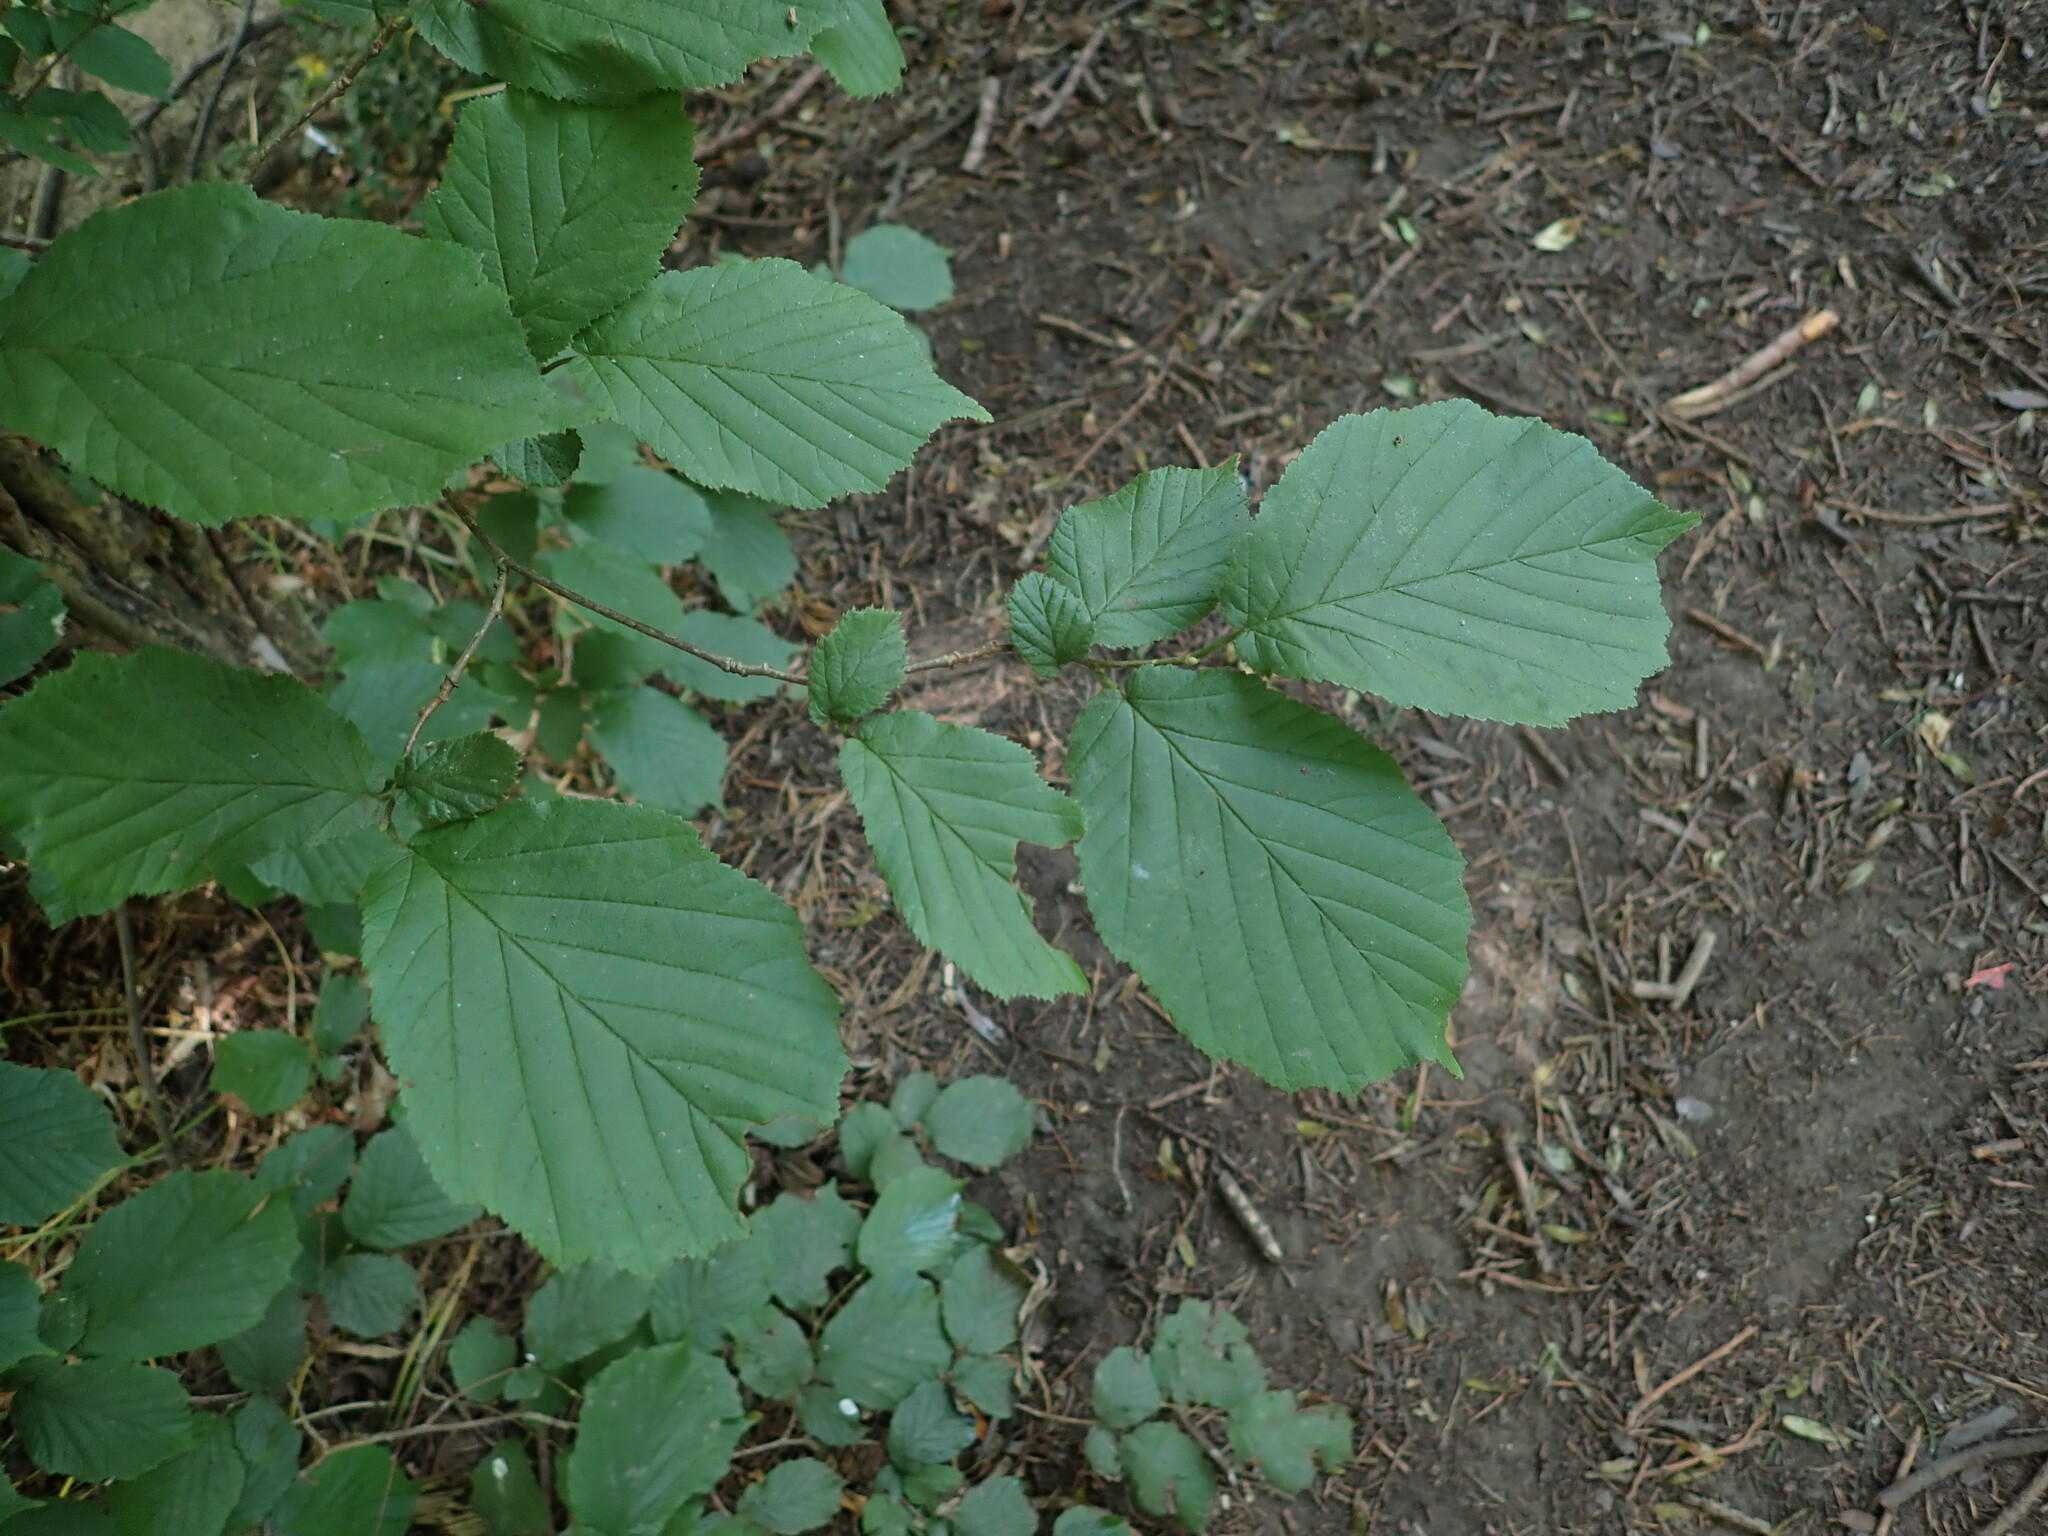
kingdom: Plantae
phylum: Tracheophyta
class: Magnoliopsida
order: Fagales
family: Betulaceae
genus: Corylus
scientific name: Corylus avellana
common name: European hazel
